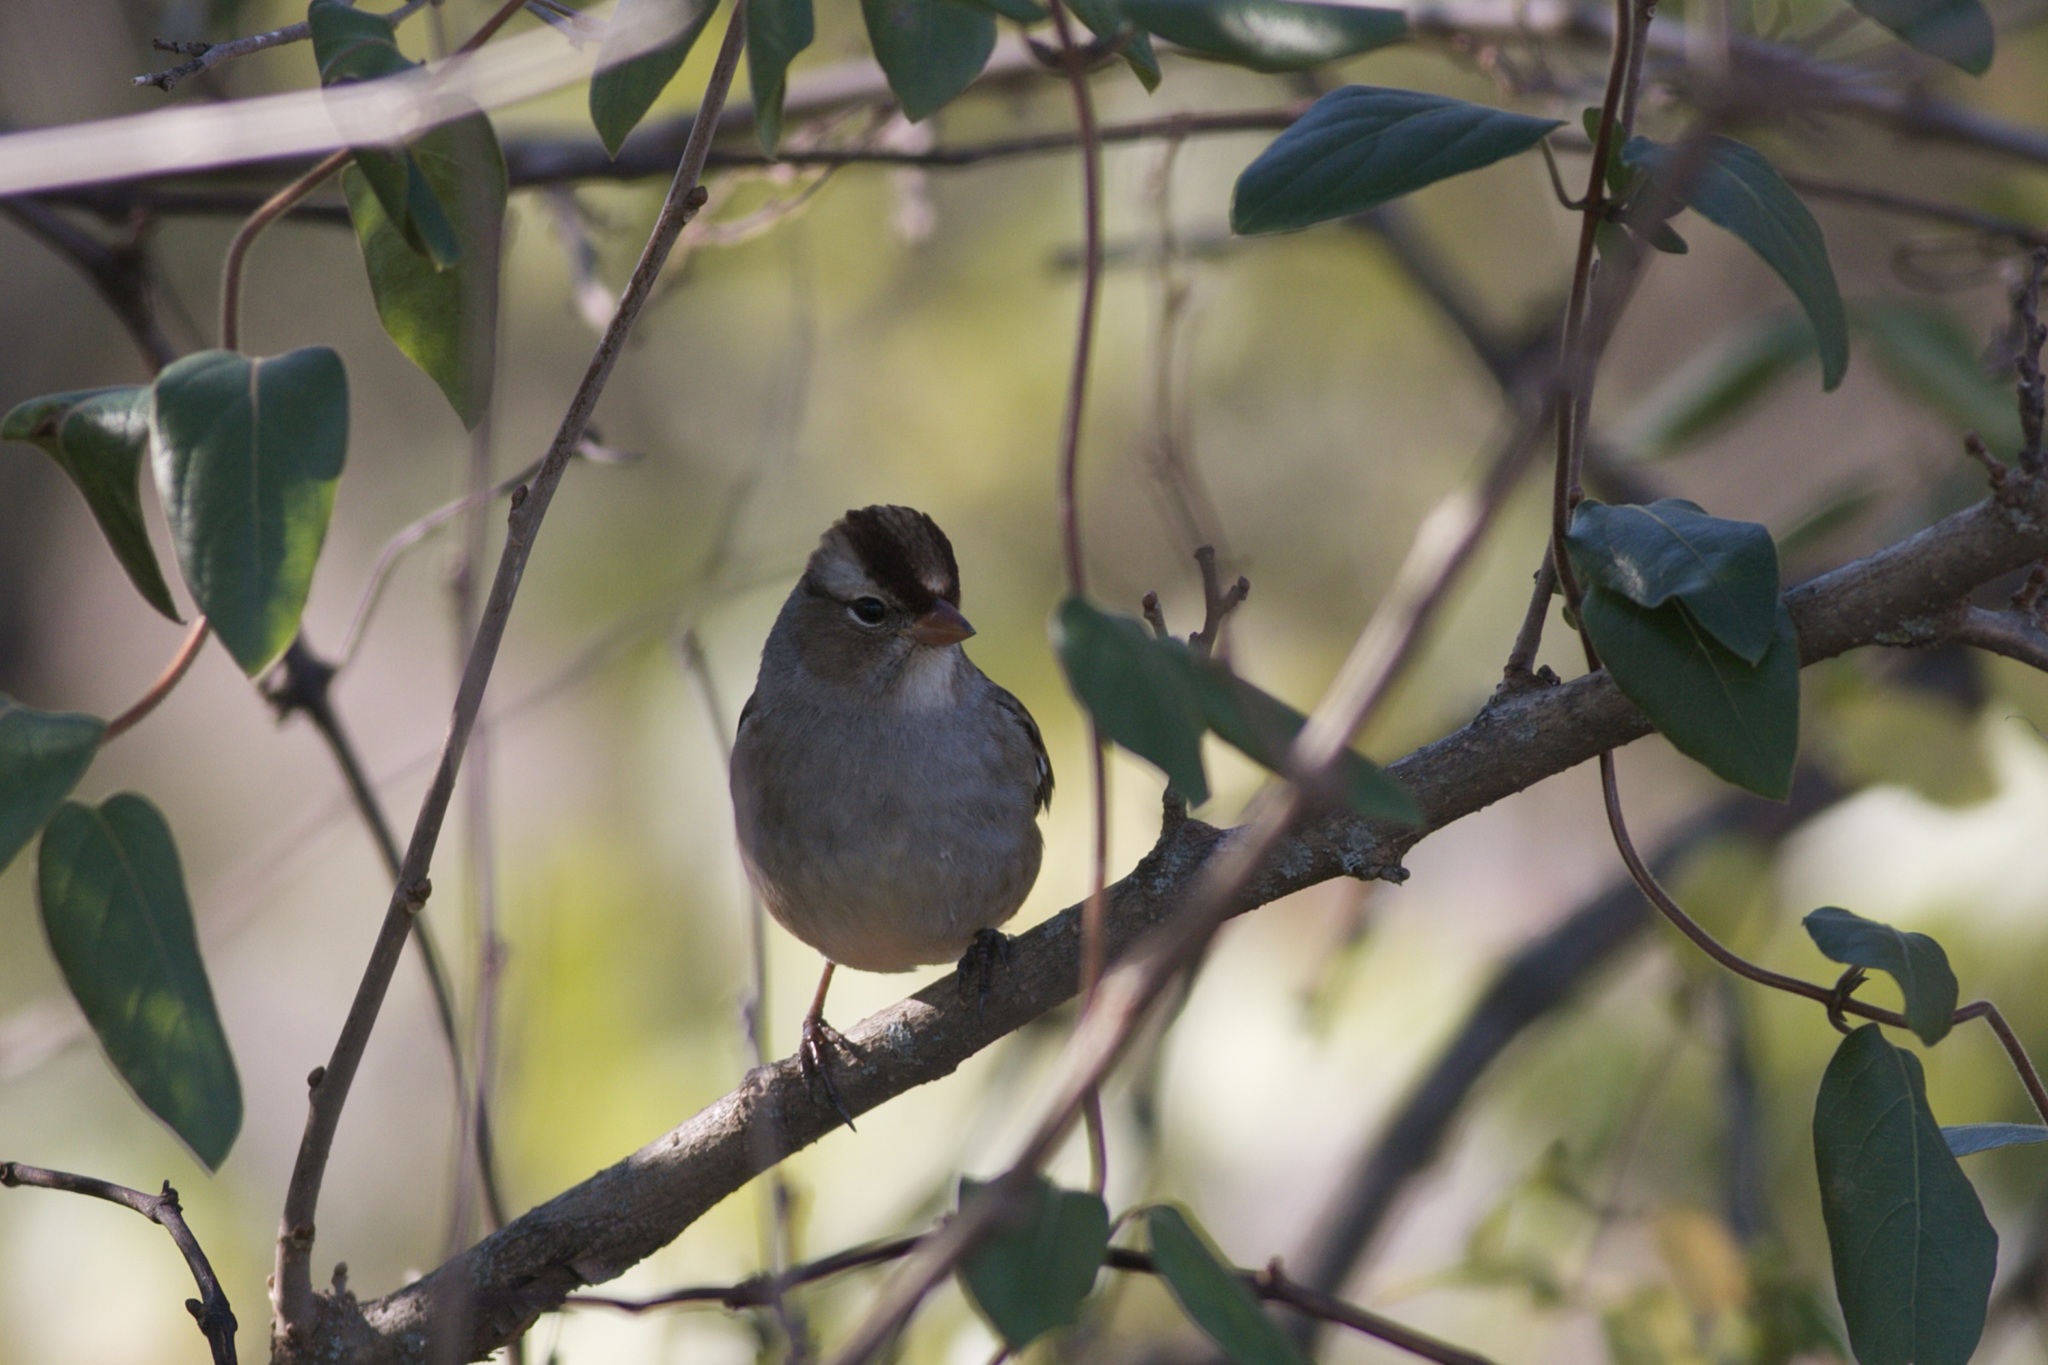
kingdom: Animalia
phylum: Chordata
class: Aves
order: Passeriformes
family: Passerellidae
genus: Zonotrichia
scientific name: Zonotrichia leucophrys
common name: White-crowned sparrow
